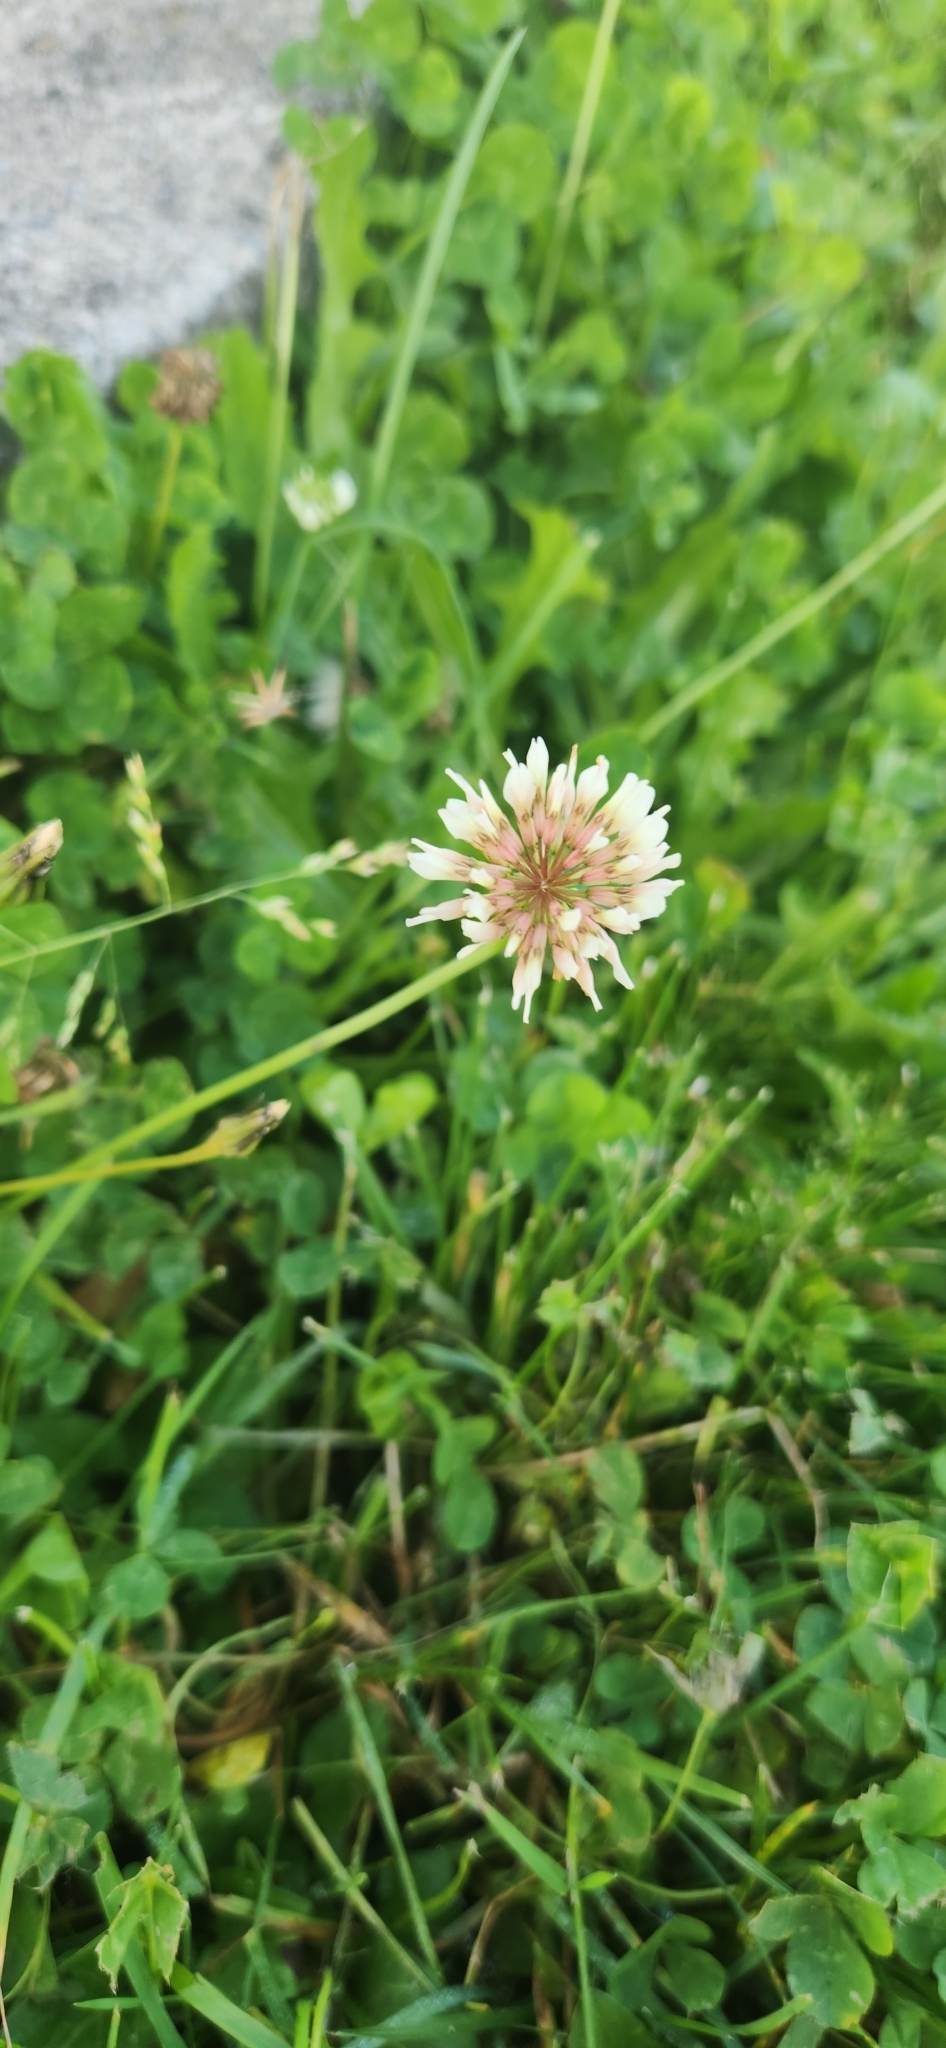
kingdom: Plantae
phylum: Tracheophyta
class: Magnoliopsida
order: Fabales
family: Fabaceae
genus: Trifolium
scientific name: Trifolium repens
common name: White clover
